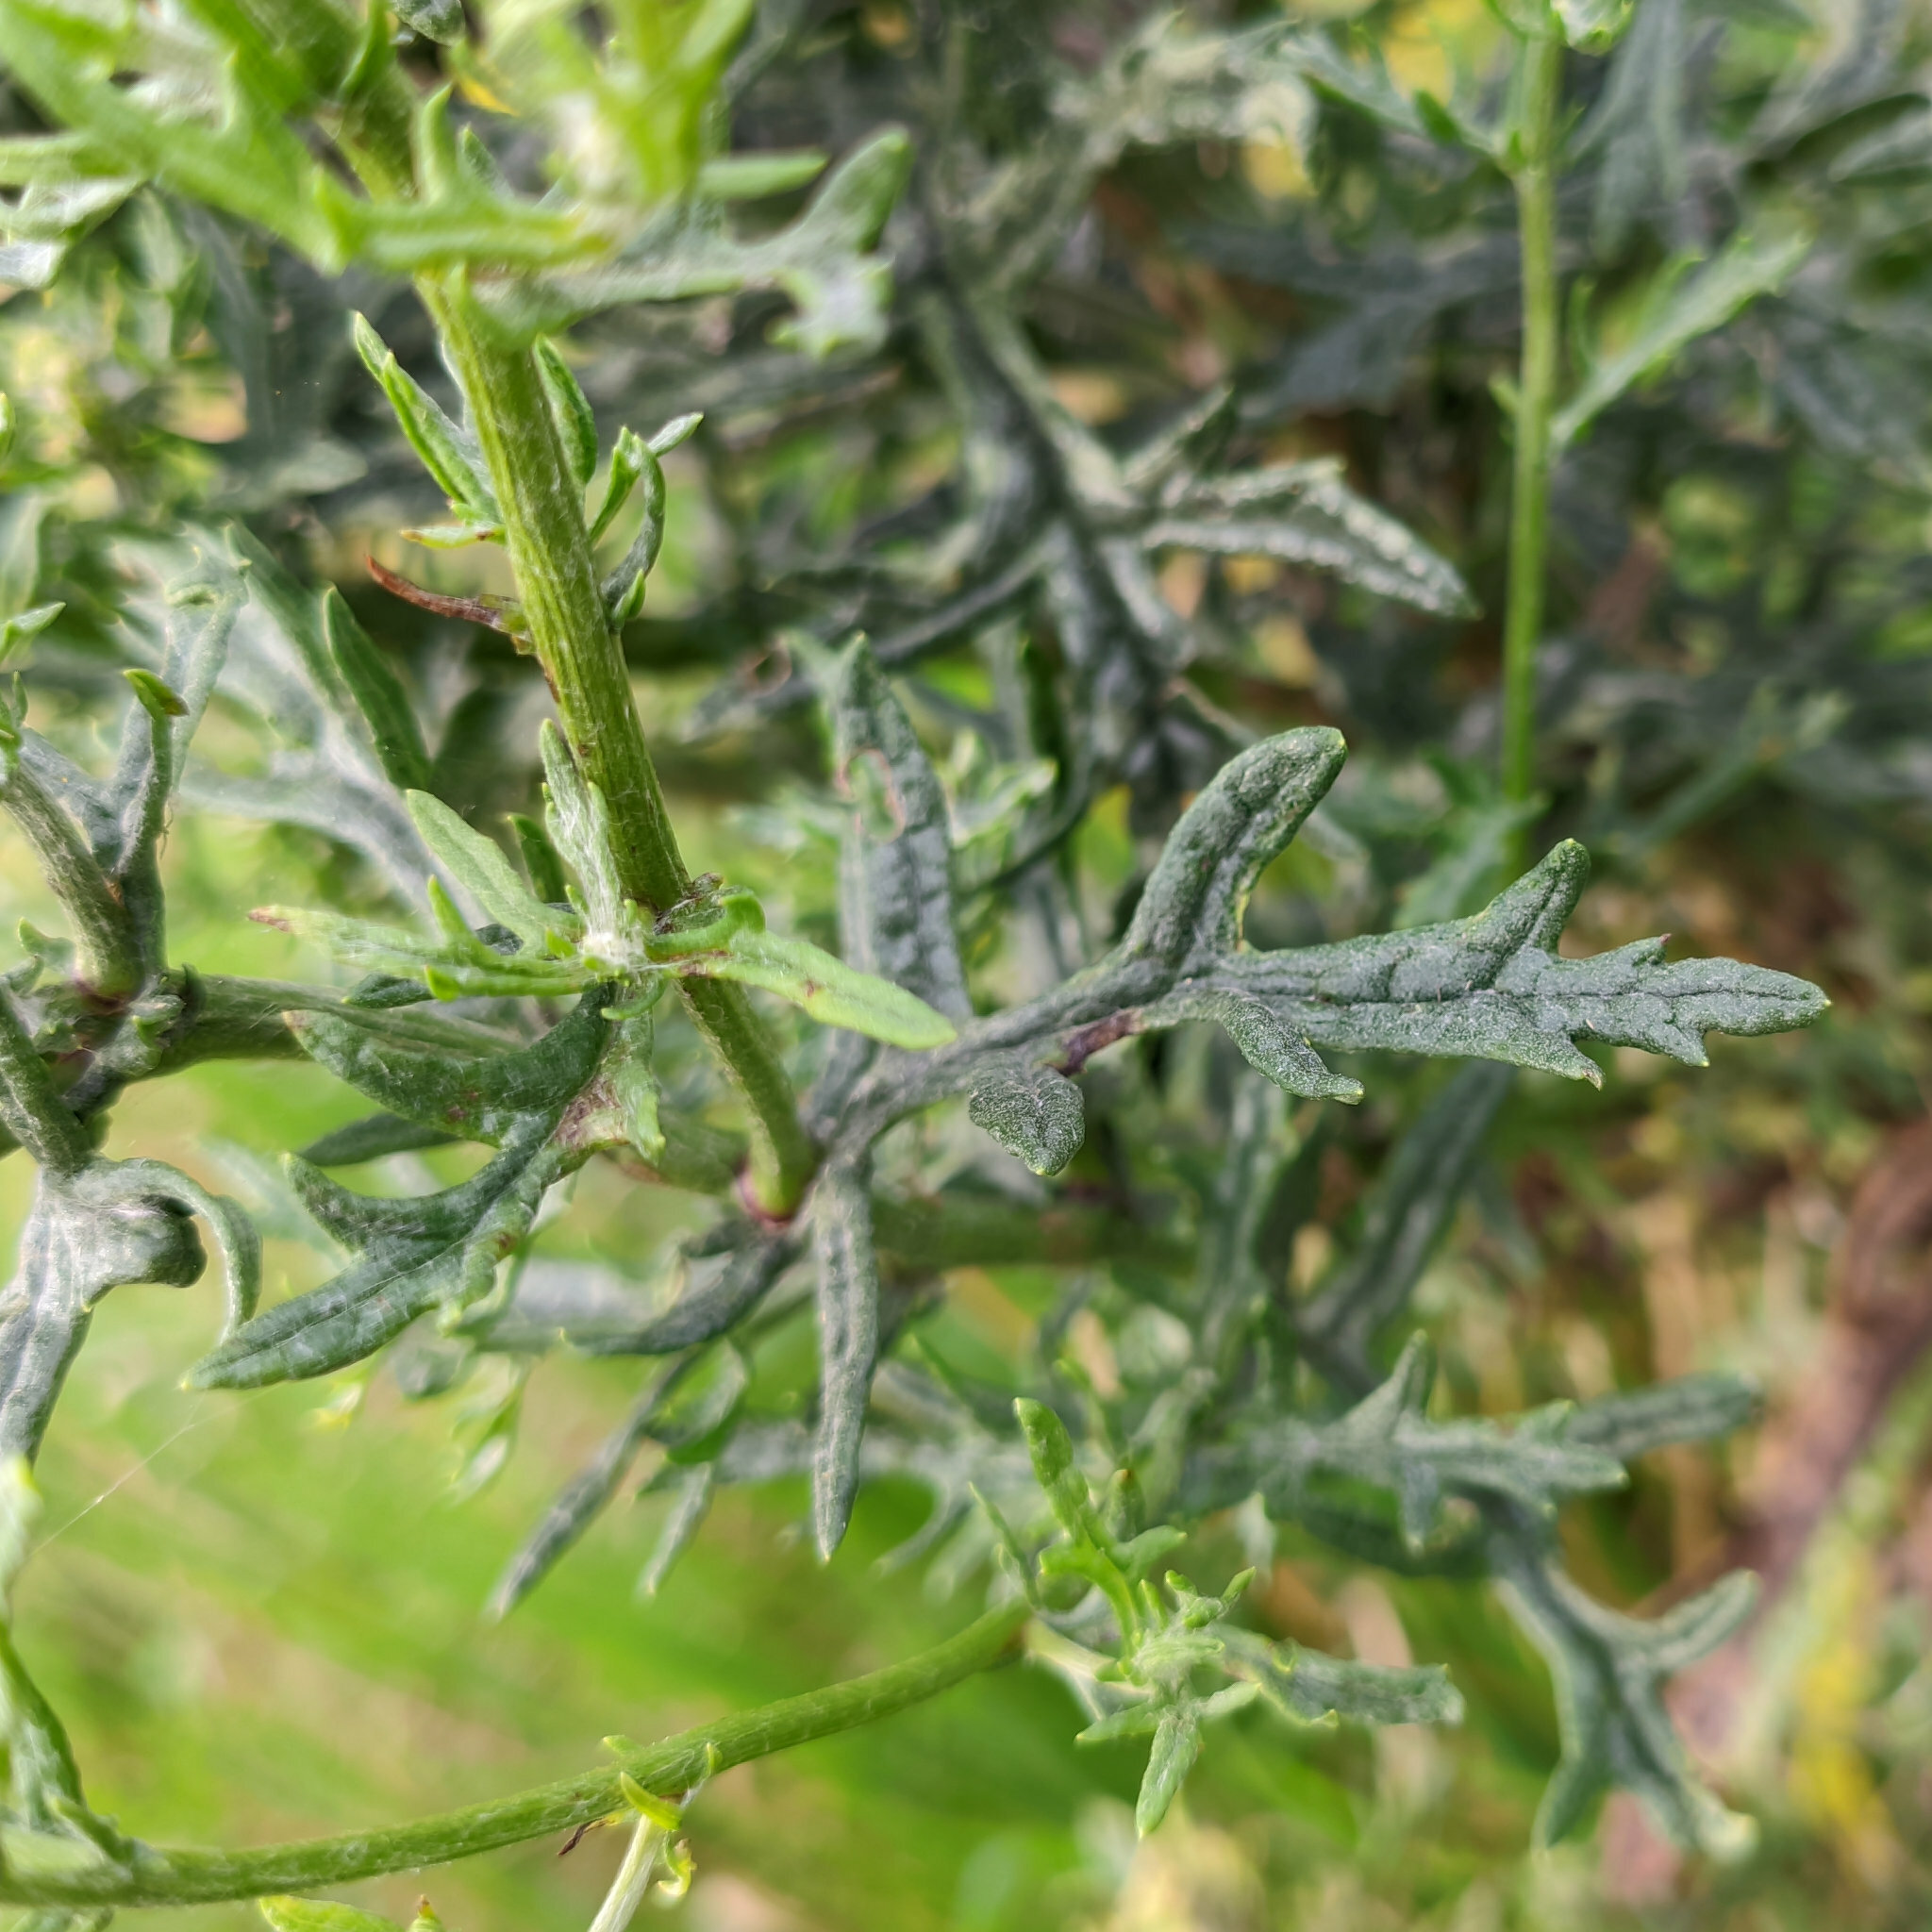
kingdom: Plantae
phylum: Tracheophyta
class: Magnoliopsida
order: Asterales
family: Asteraceae
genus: Jacobaea
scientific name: Jacobaea vulgaris
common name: Stinking willie
